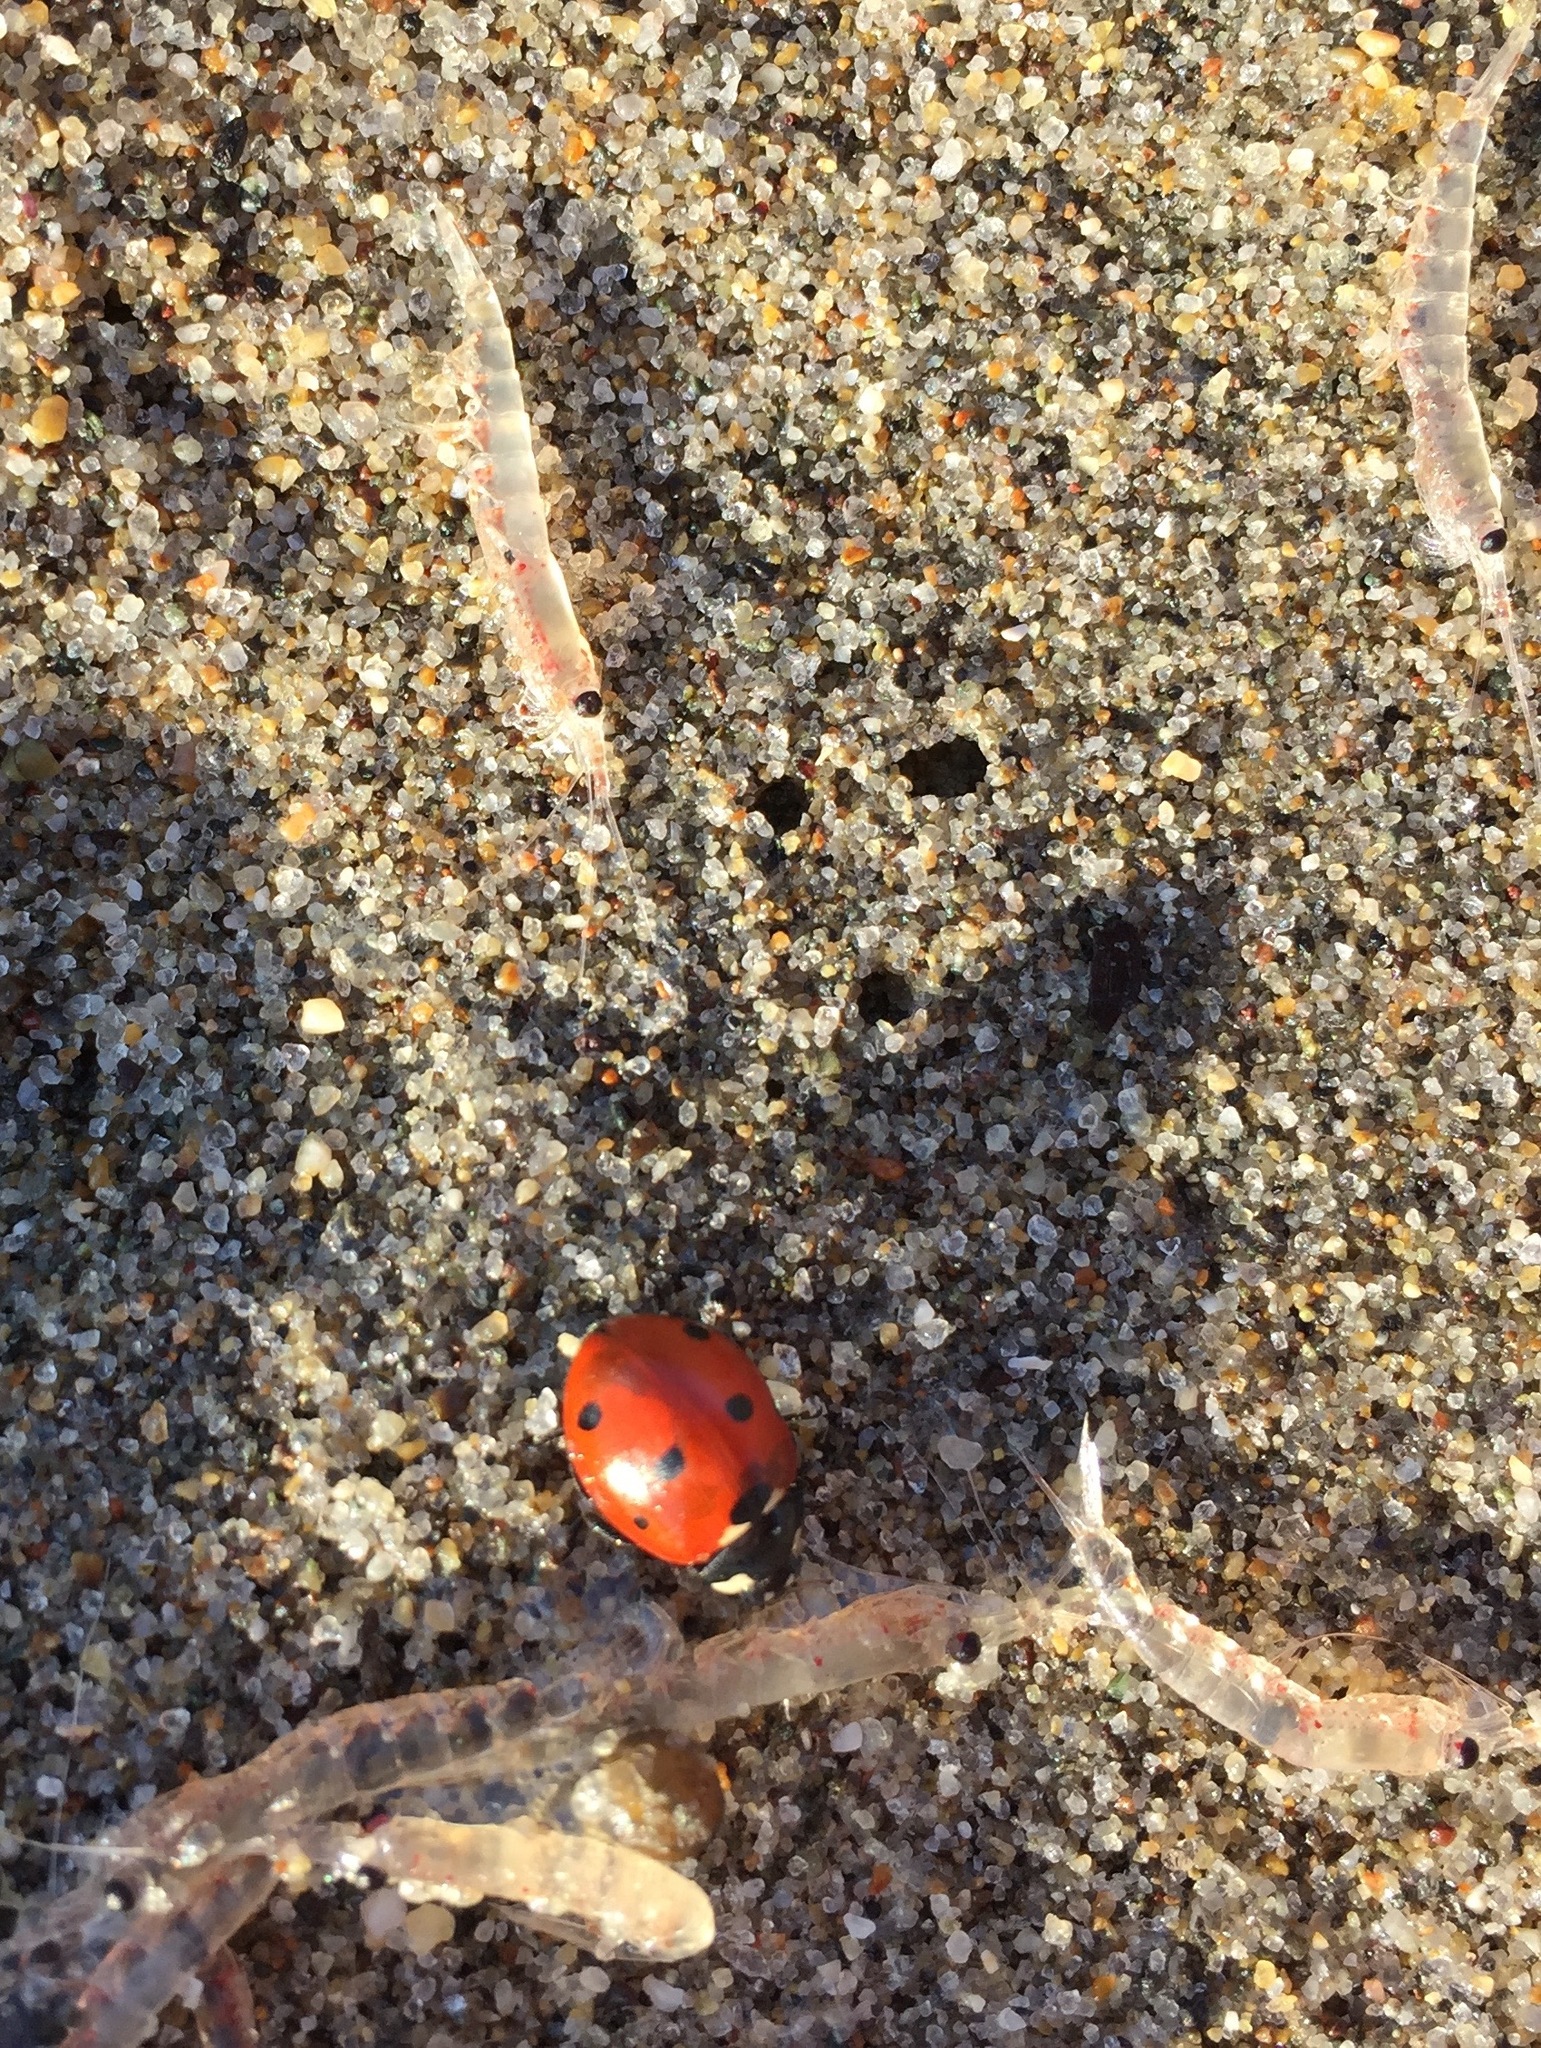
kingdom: Animalia
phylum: Arthropoda
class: Insecta
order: Coleoptera
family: Coccinellidae
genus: Coccinella
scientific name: Coccinella septempunctata
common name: Sevenspotted lady beetle
